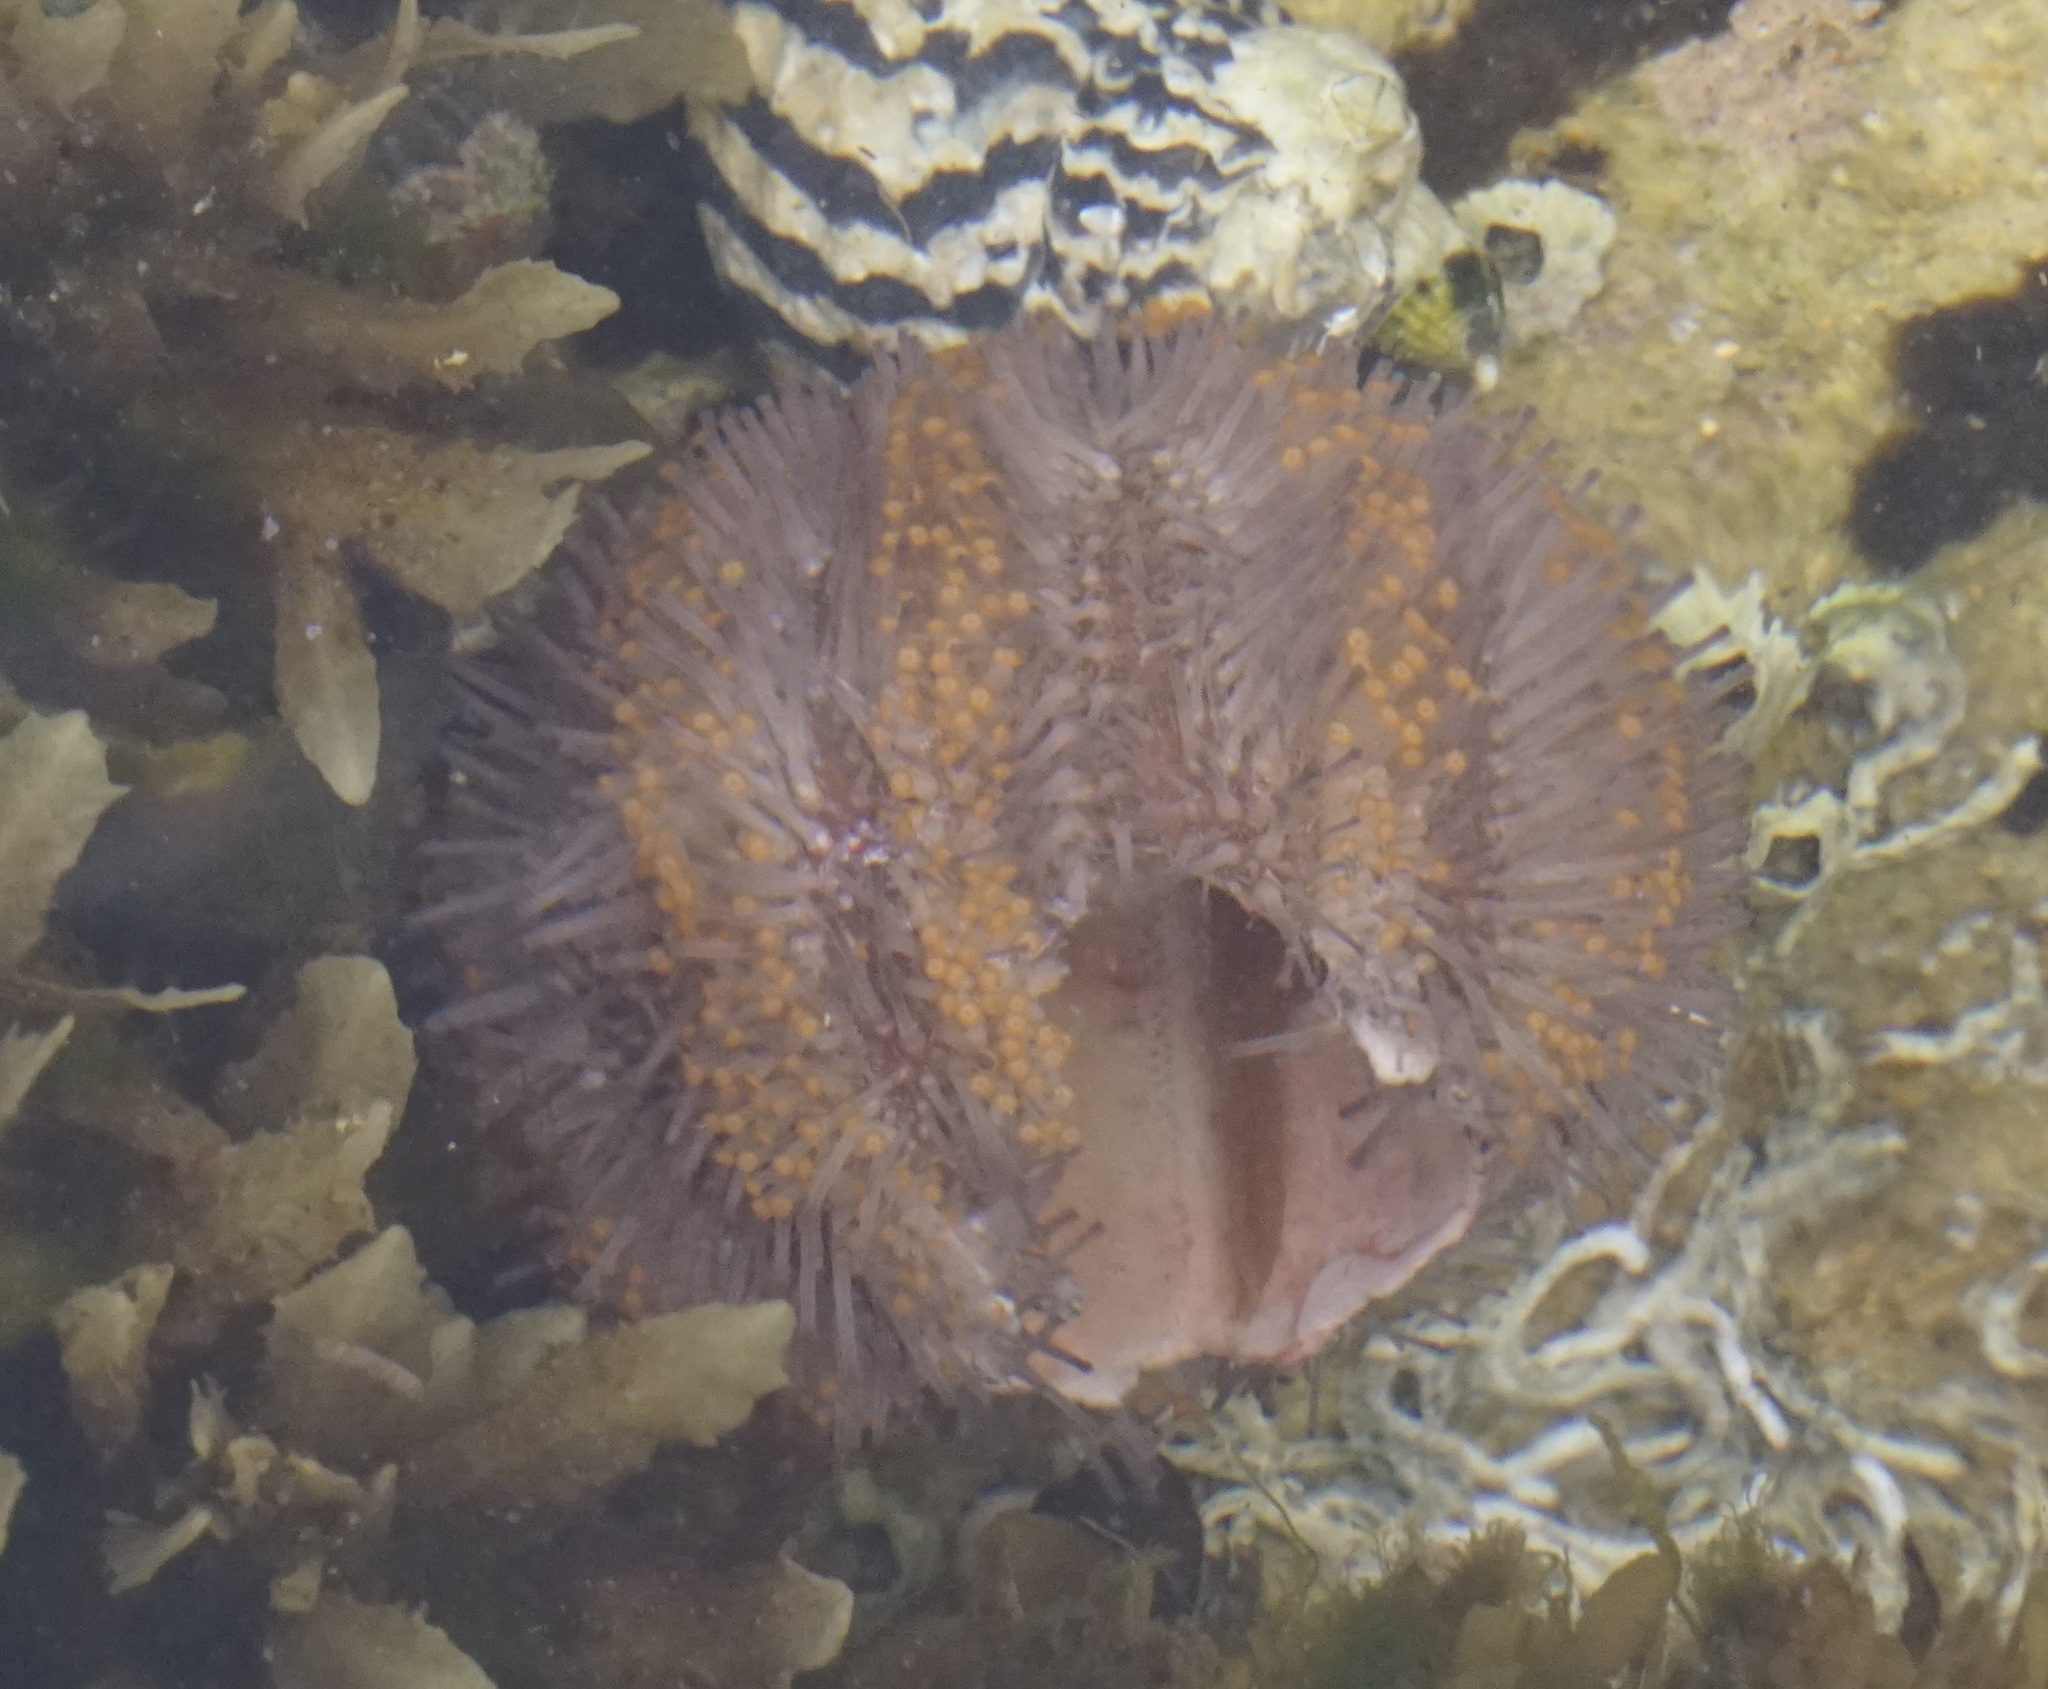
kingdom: Animalia
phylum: Echinodermata
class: Echinoidea
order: Camarodonta
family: Temnopleuridae
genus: Holopneustes
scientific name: Holopneustes purpurascens
